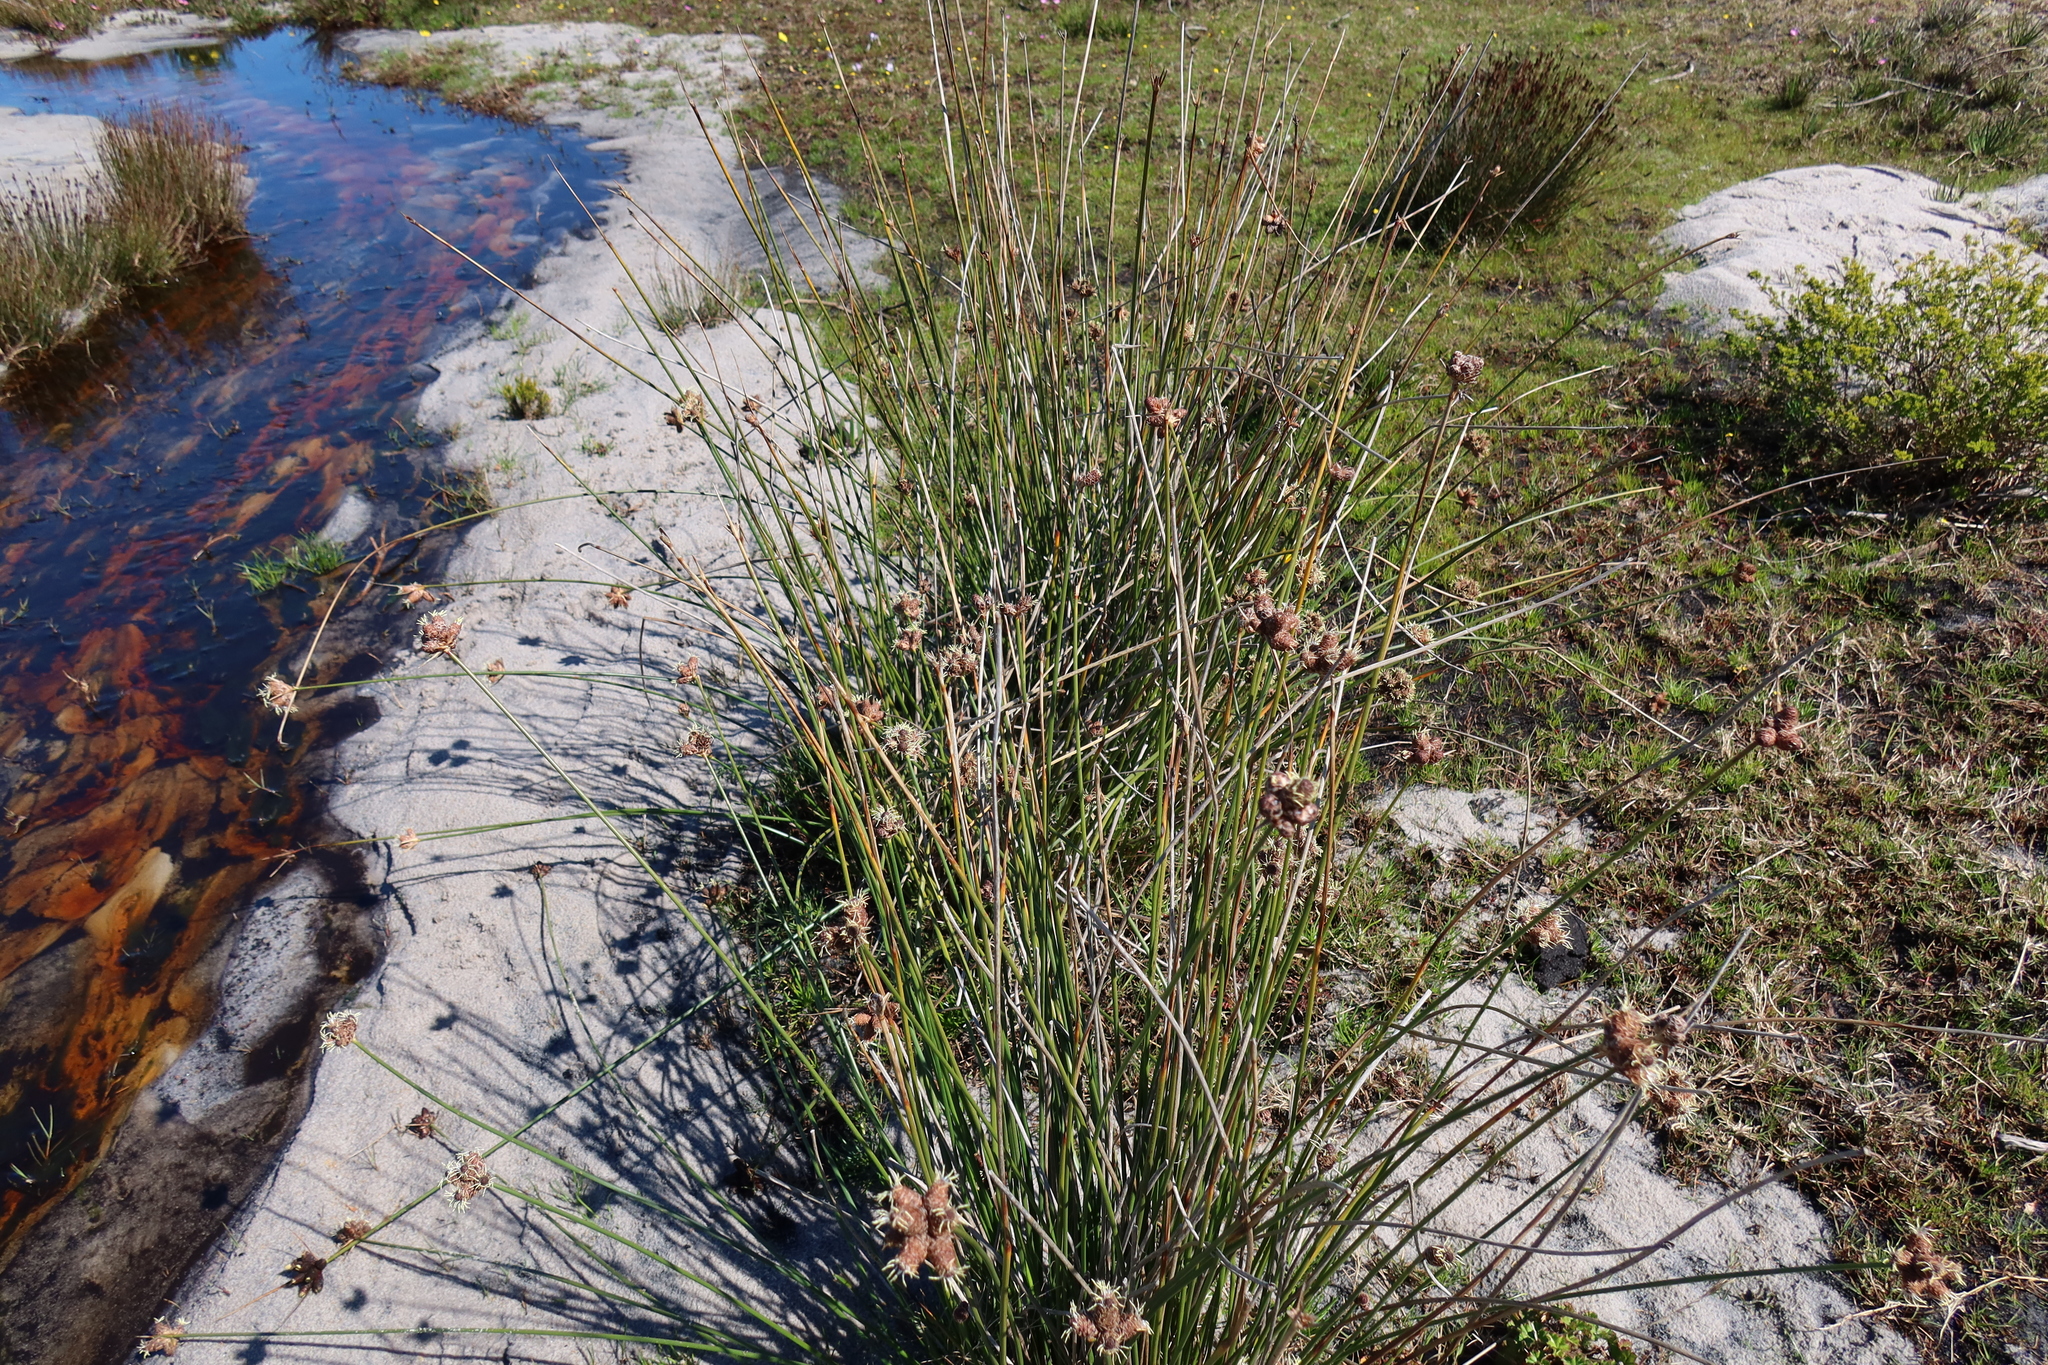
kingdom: Plantae
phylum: Tracheophyta
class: Liliopsida
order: Poales
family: Cyperaceae
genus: Hellmuthia
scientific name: Hellmuthia membranacea
